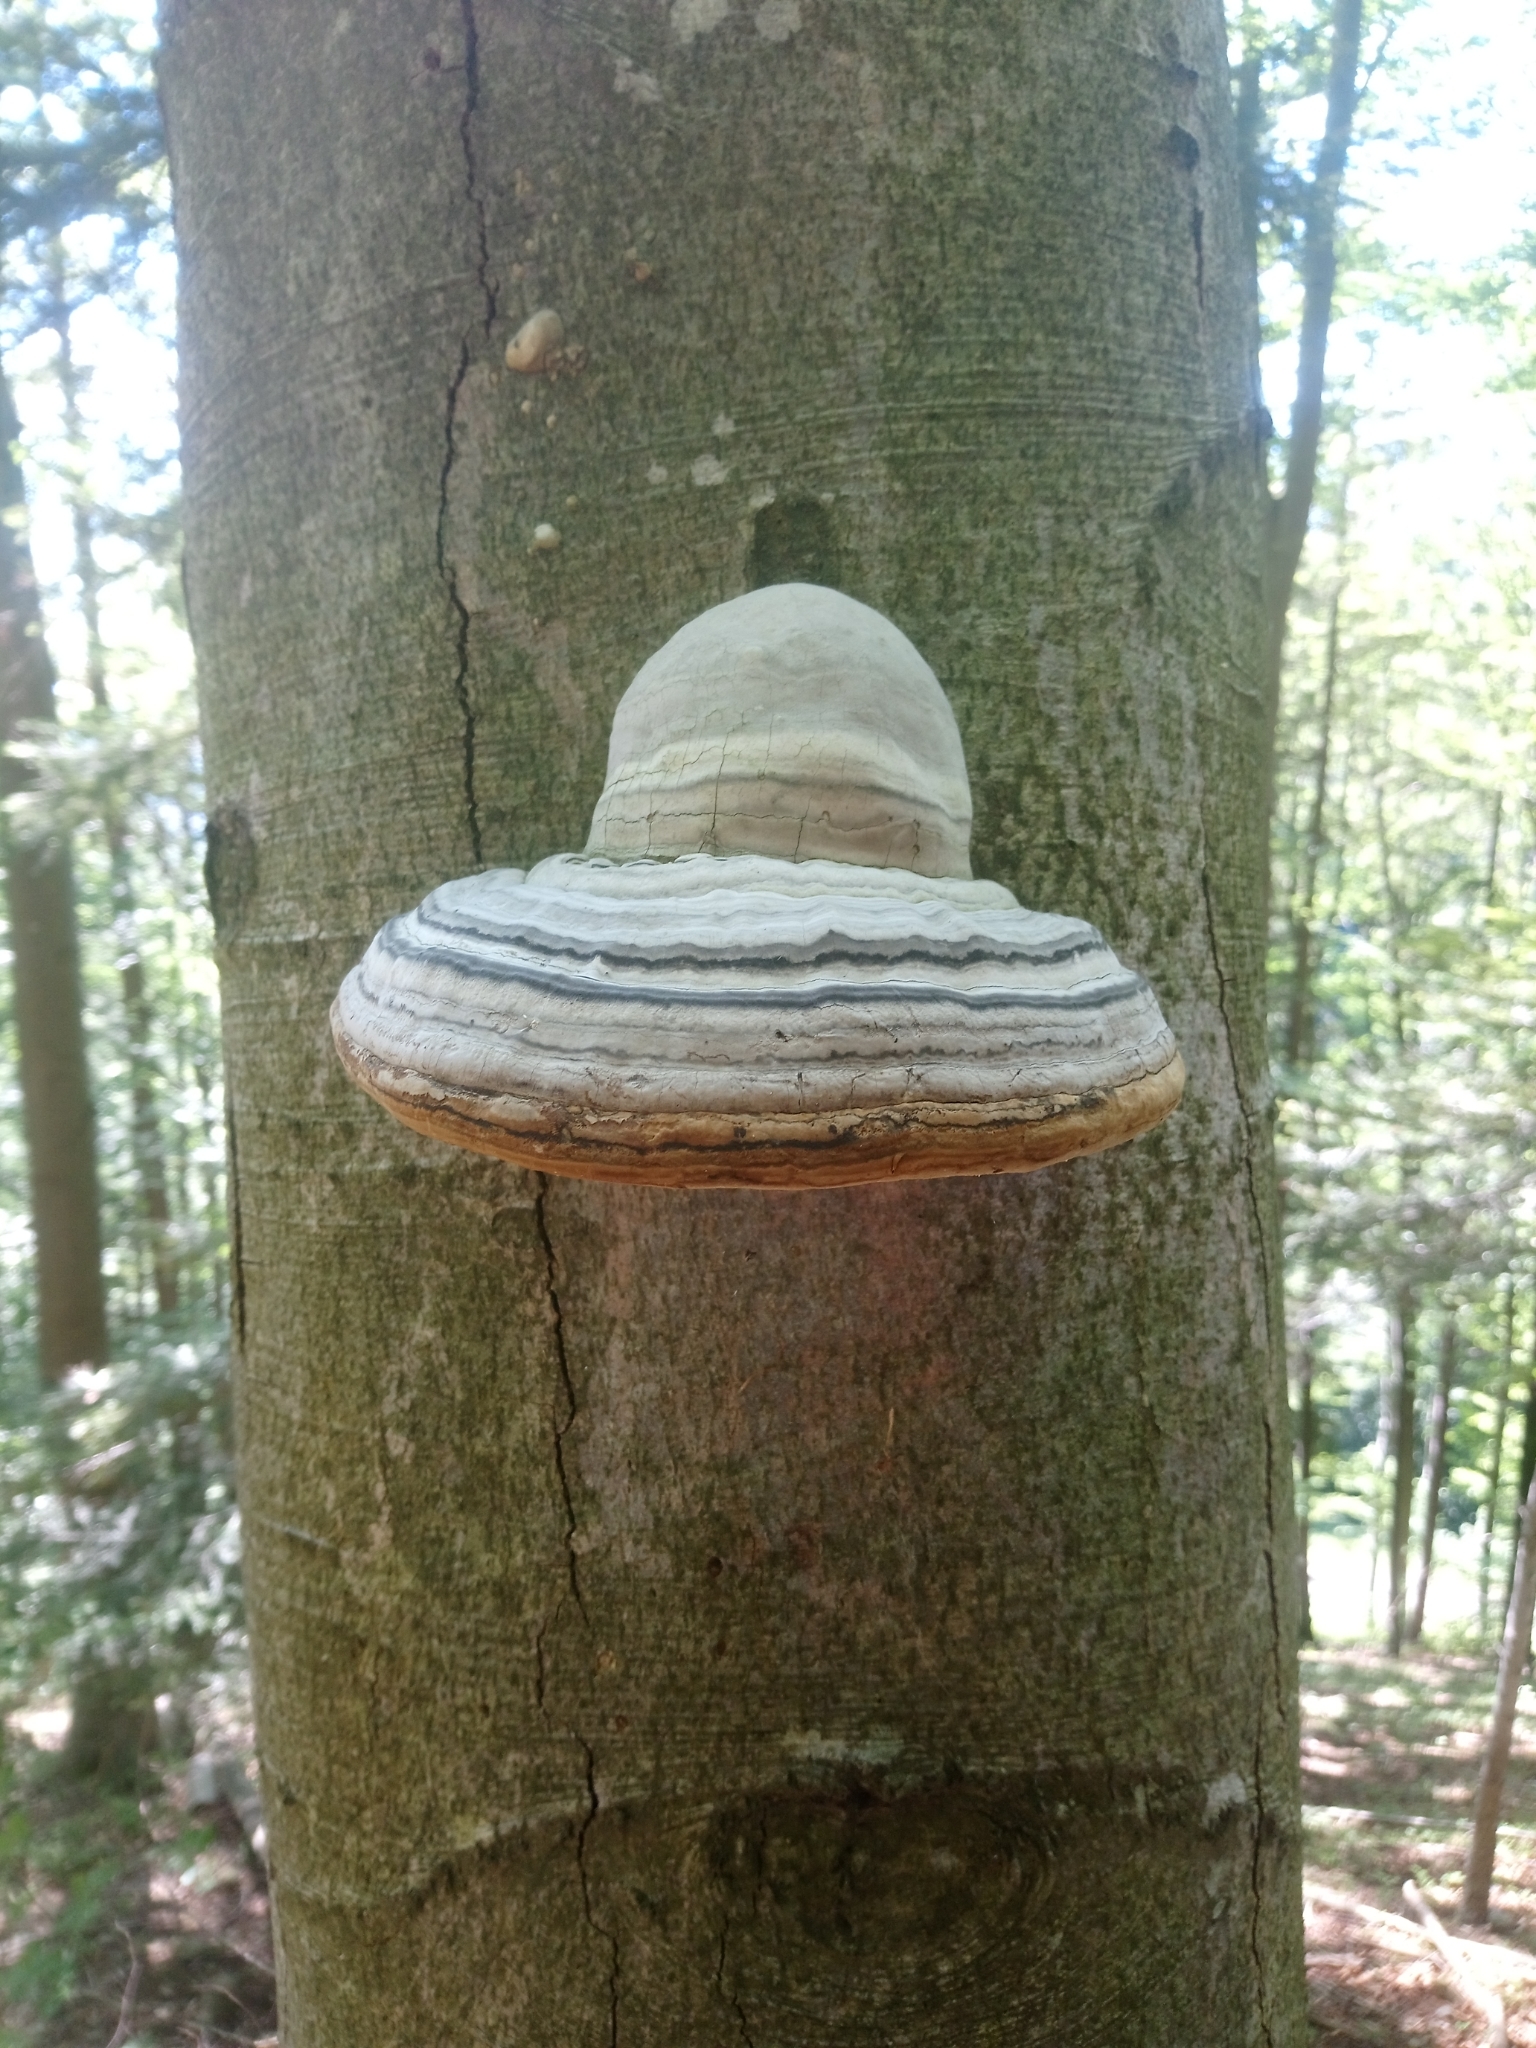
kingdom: Fungi
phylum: Basidiomycota
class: Agaricomycetes
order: Polyporales
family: Polyporaceae
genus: Fomes
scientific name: Fomes fomentarius
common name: Hoof fungus
